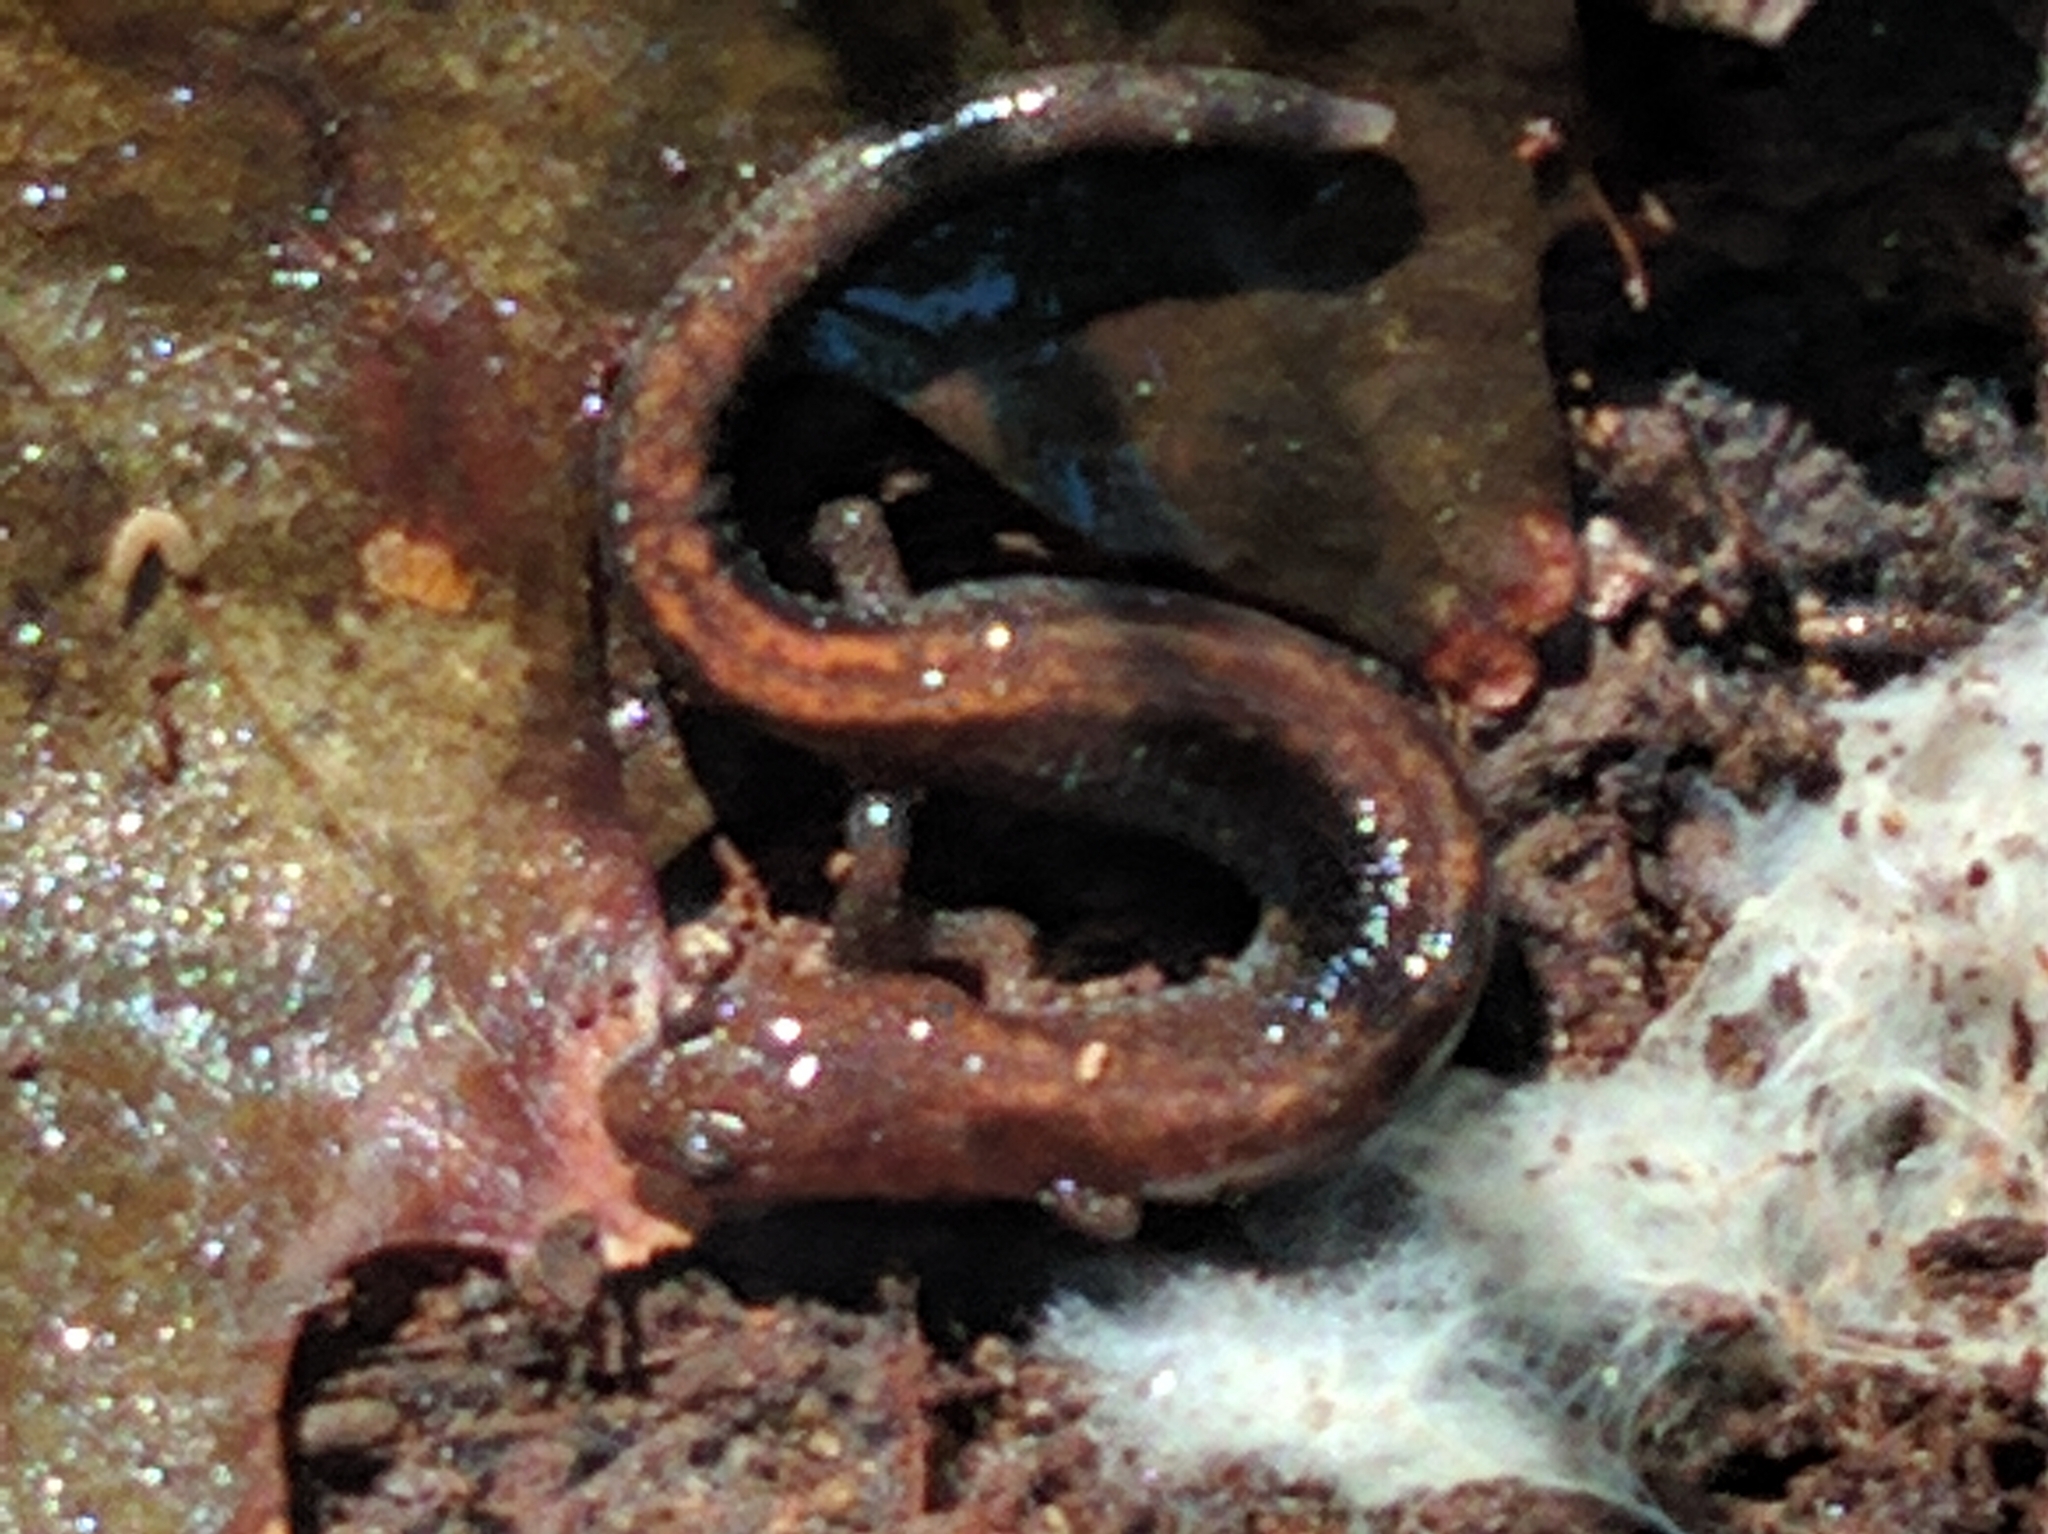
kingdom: Animalia
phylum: Chordata
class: Amphibia
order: Caudata
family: Plethodontidae
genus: Plethodon
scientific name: Plethodon cinereus
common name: Redback salamander
